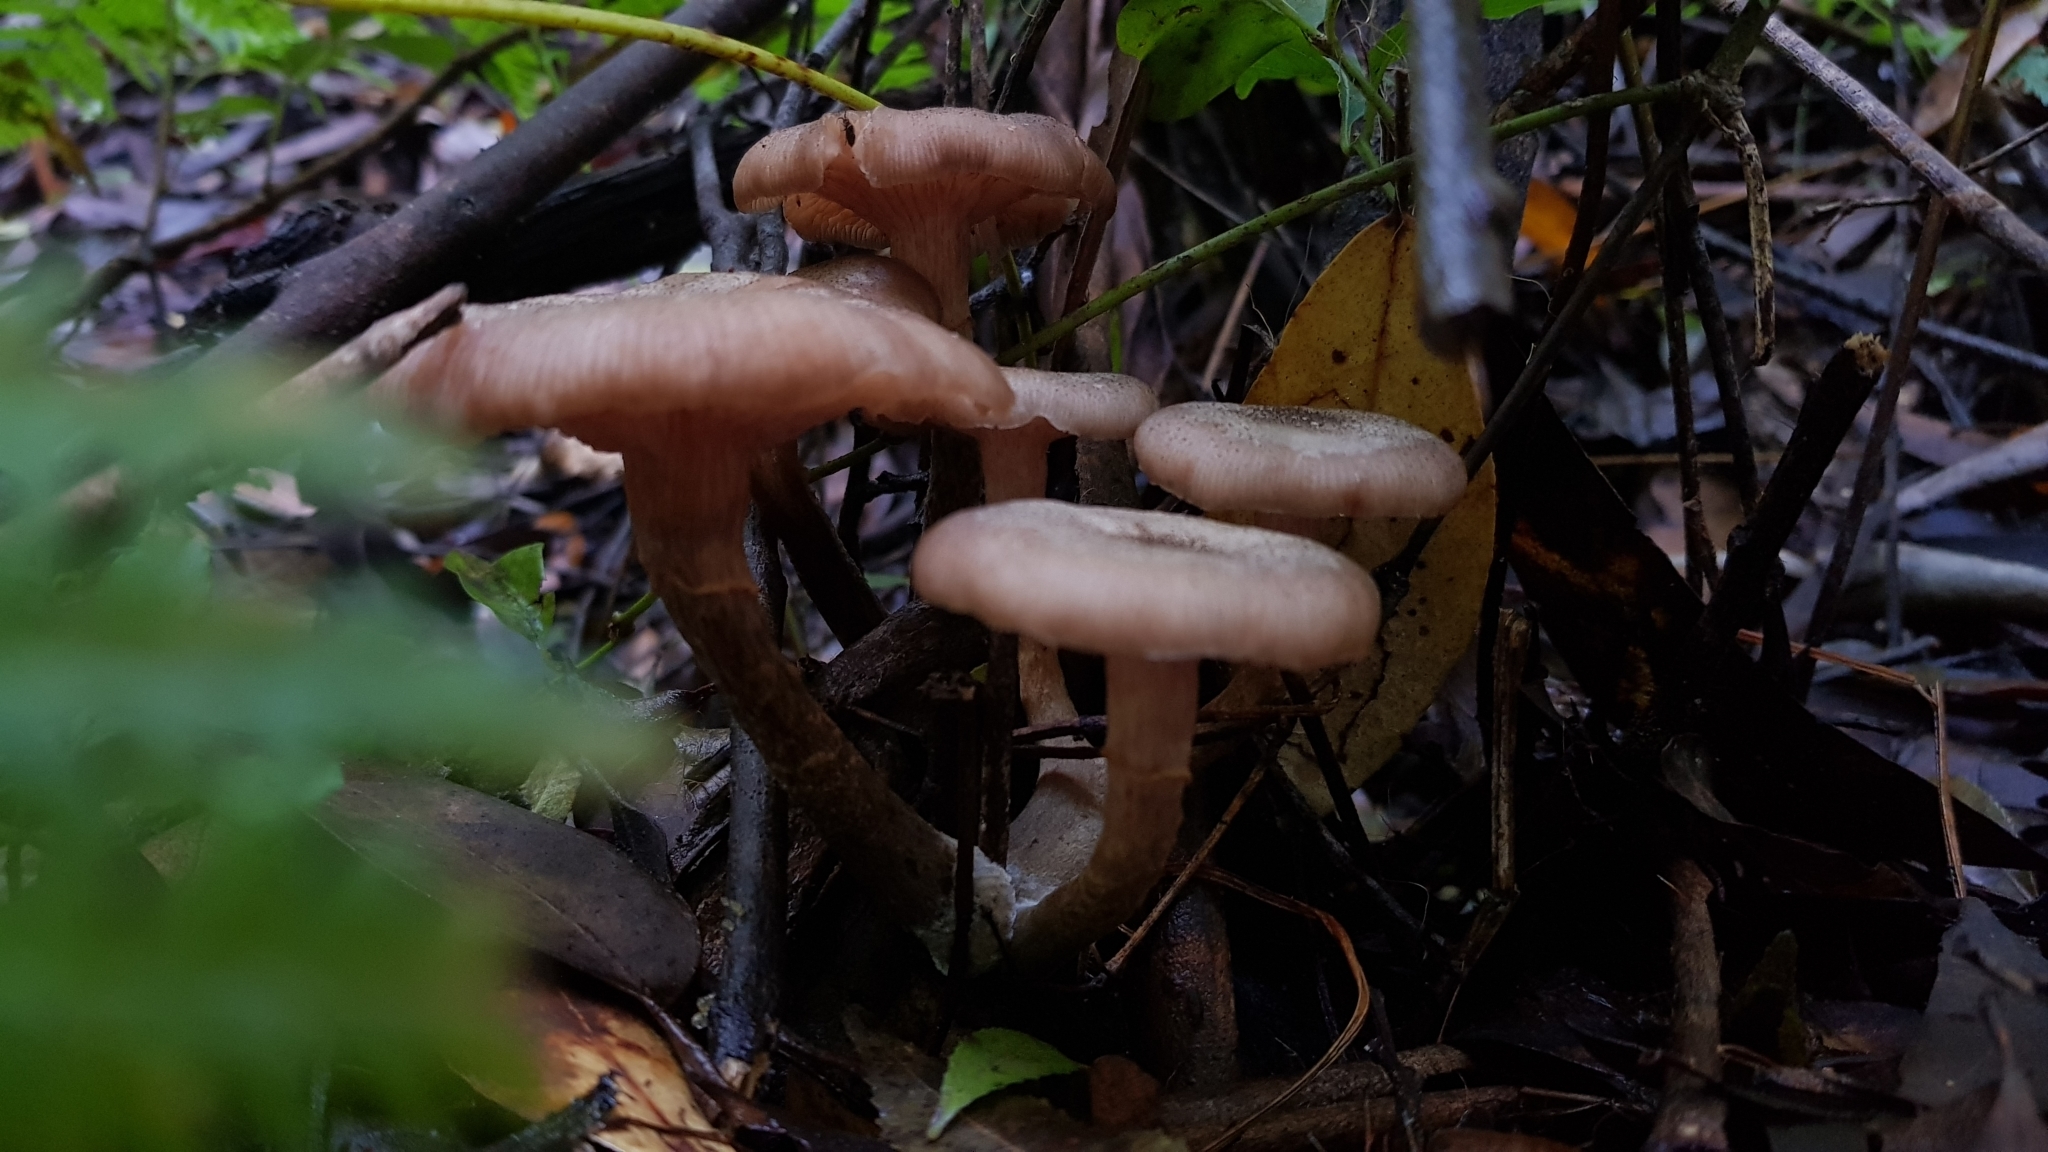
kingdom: Fungi
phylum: Basidiomycota
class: Agaricomycetes
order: Agaricales
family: Physalacriaceae
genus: Armillaria
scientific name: Armillaria novae-zelandiae
